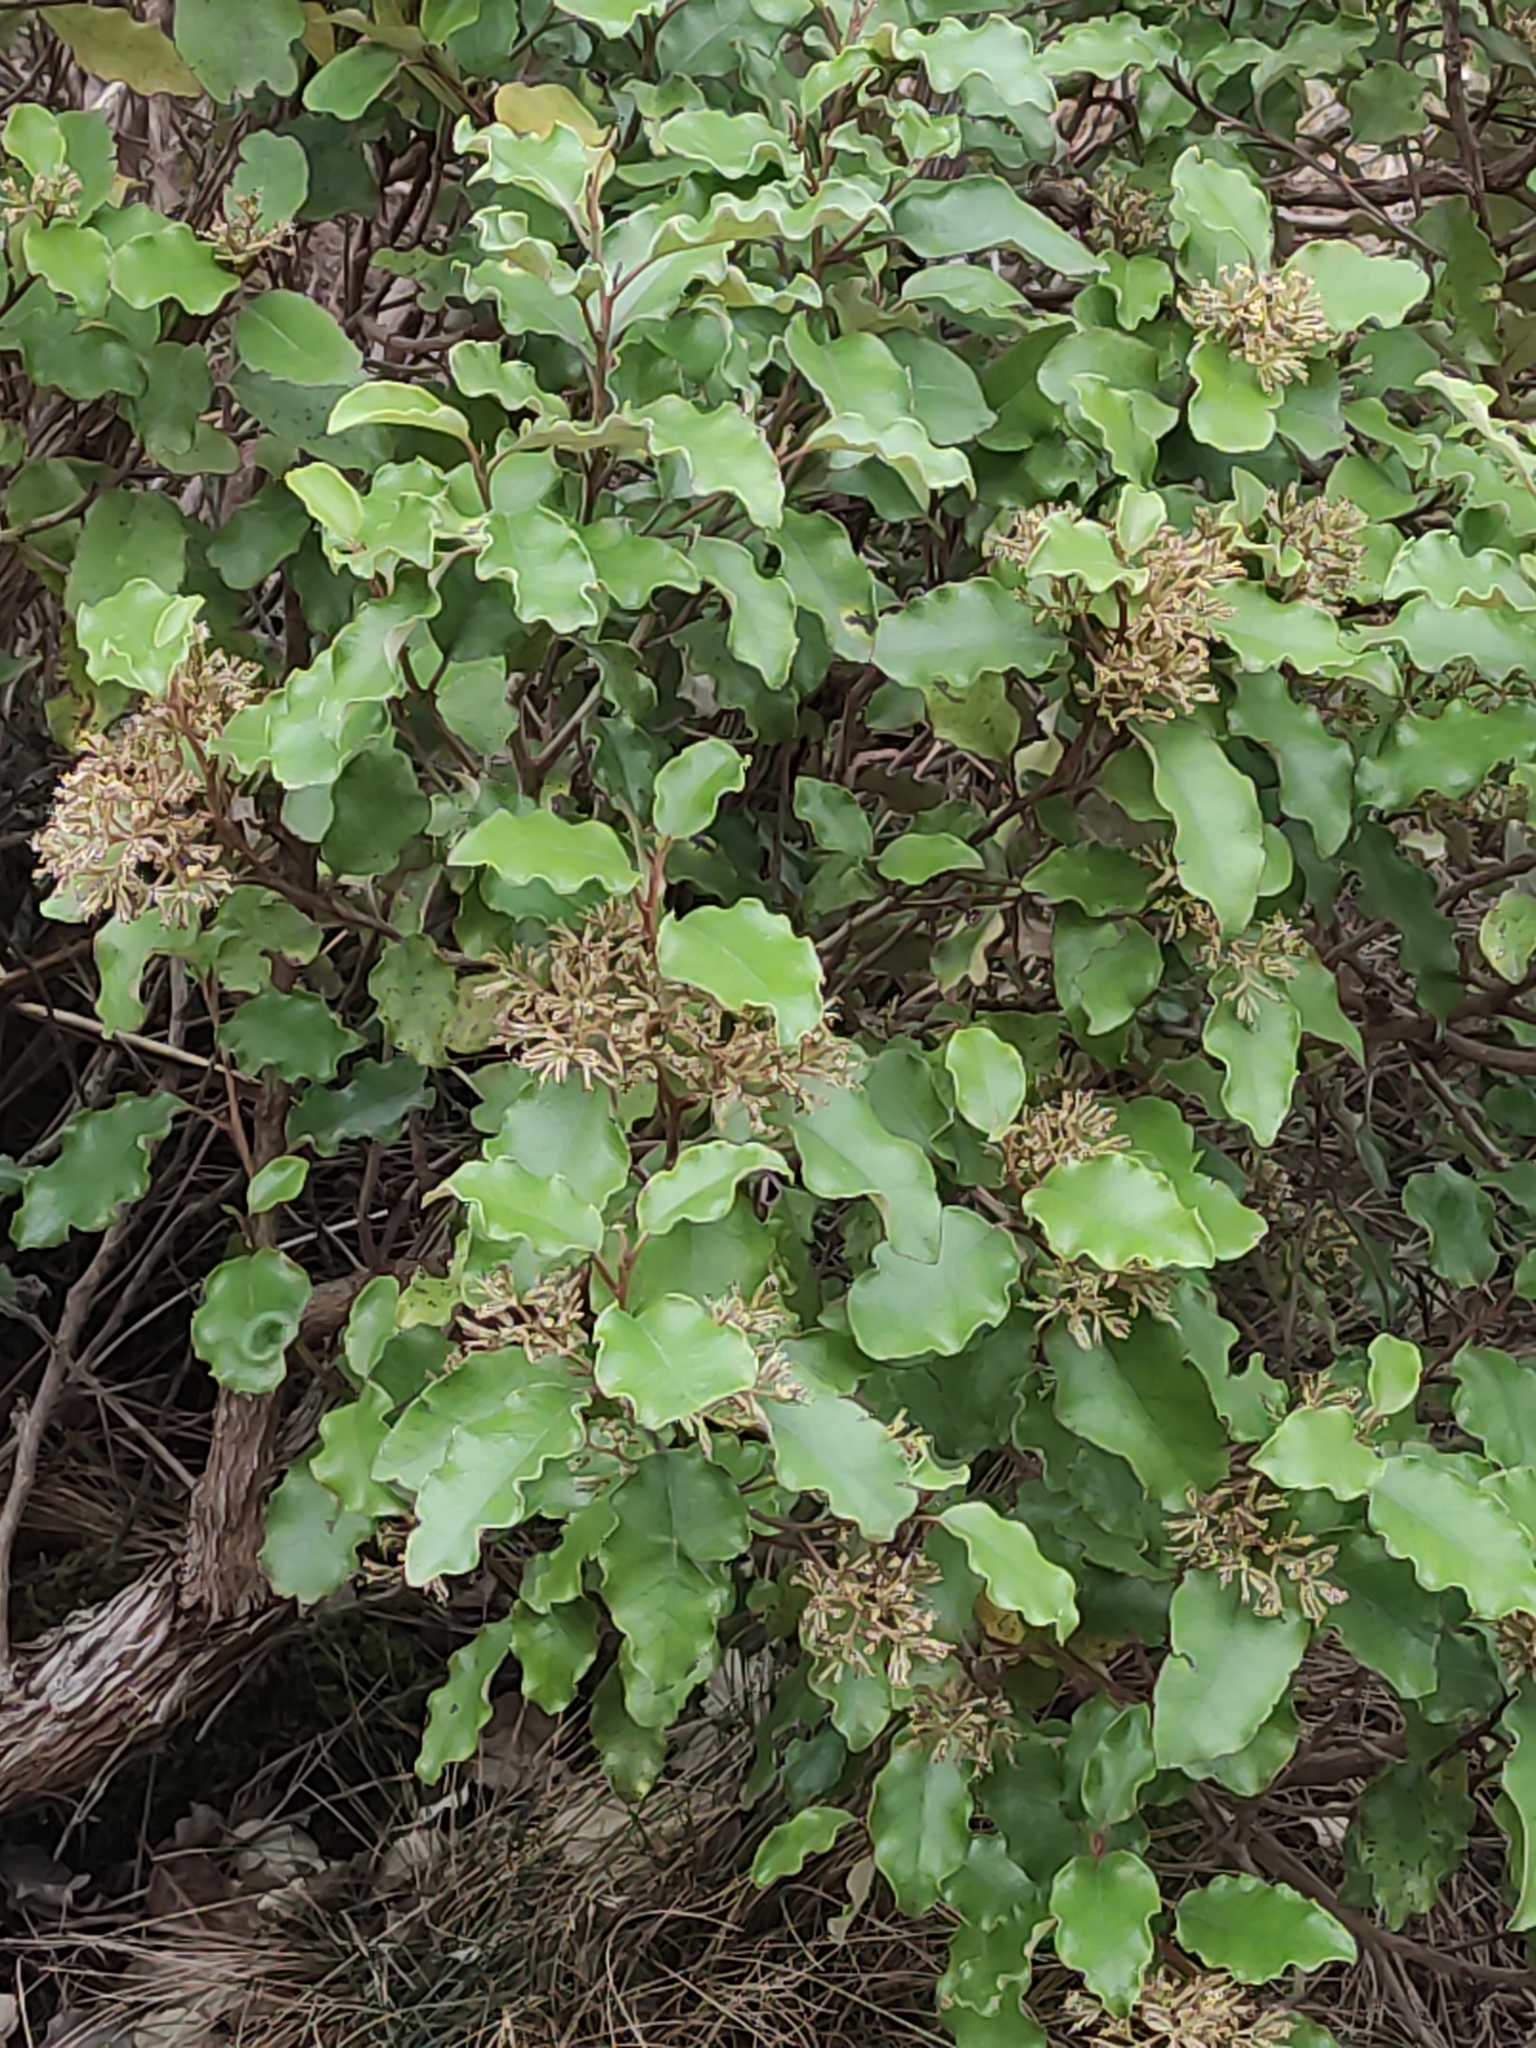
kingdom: Plantae
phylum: Tracheophyta
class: Magnoliopsida
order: Asterales
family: Asteraceae
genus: Olearia
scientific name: Olearia paniculata
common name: Akiraho
